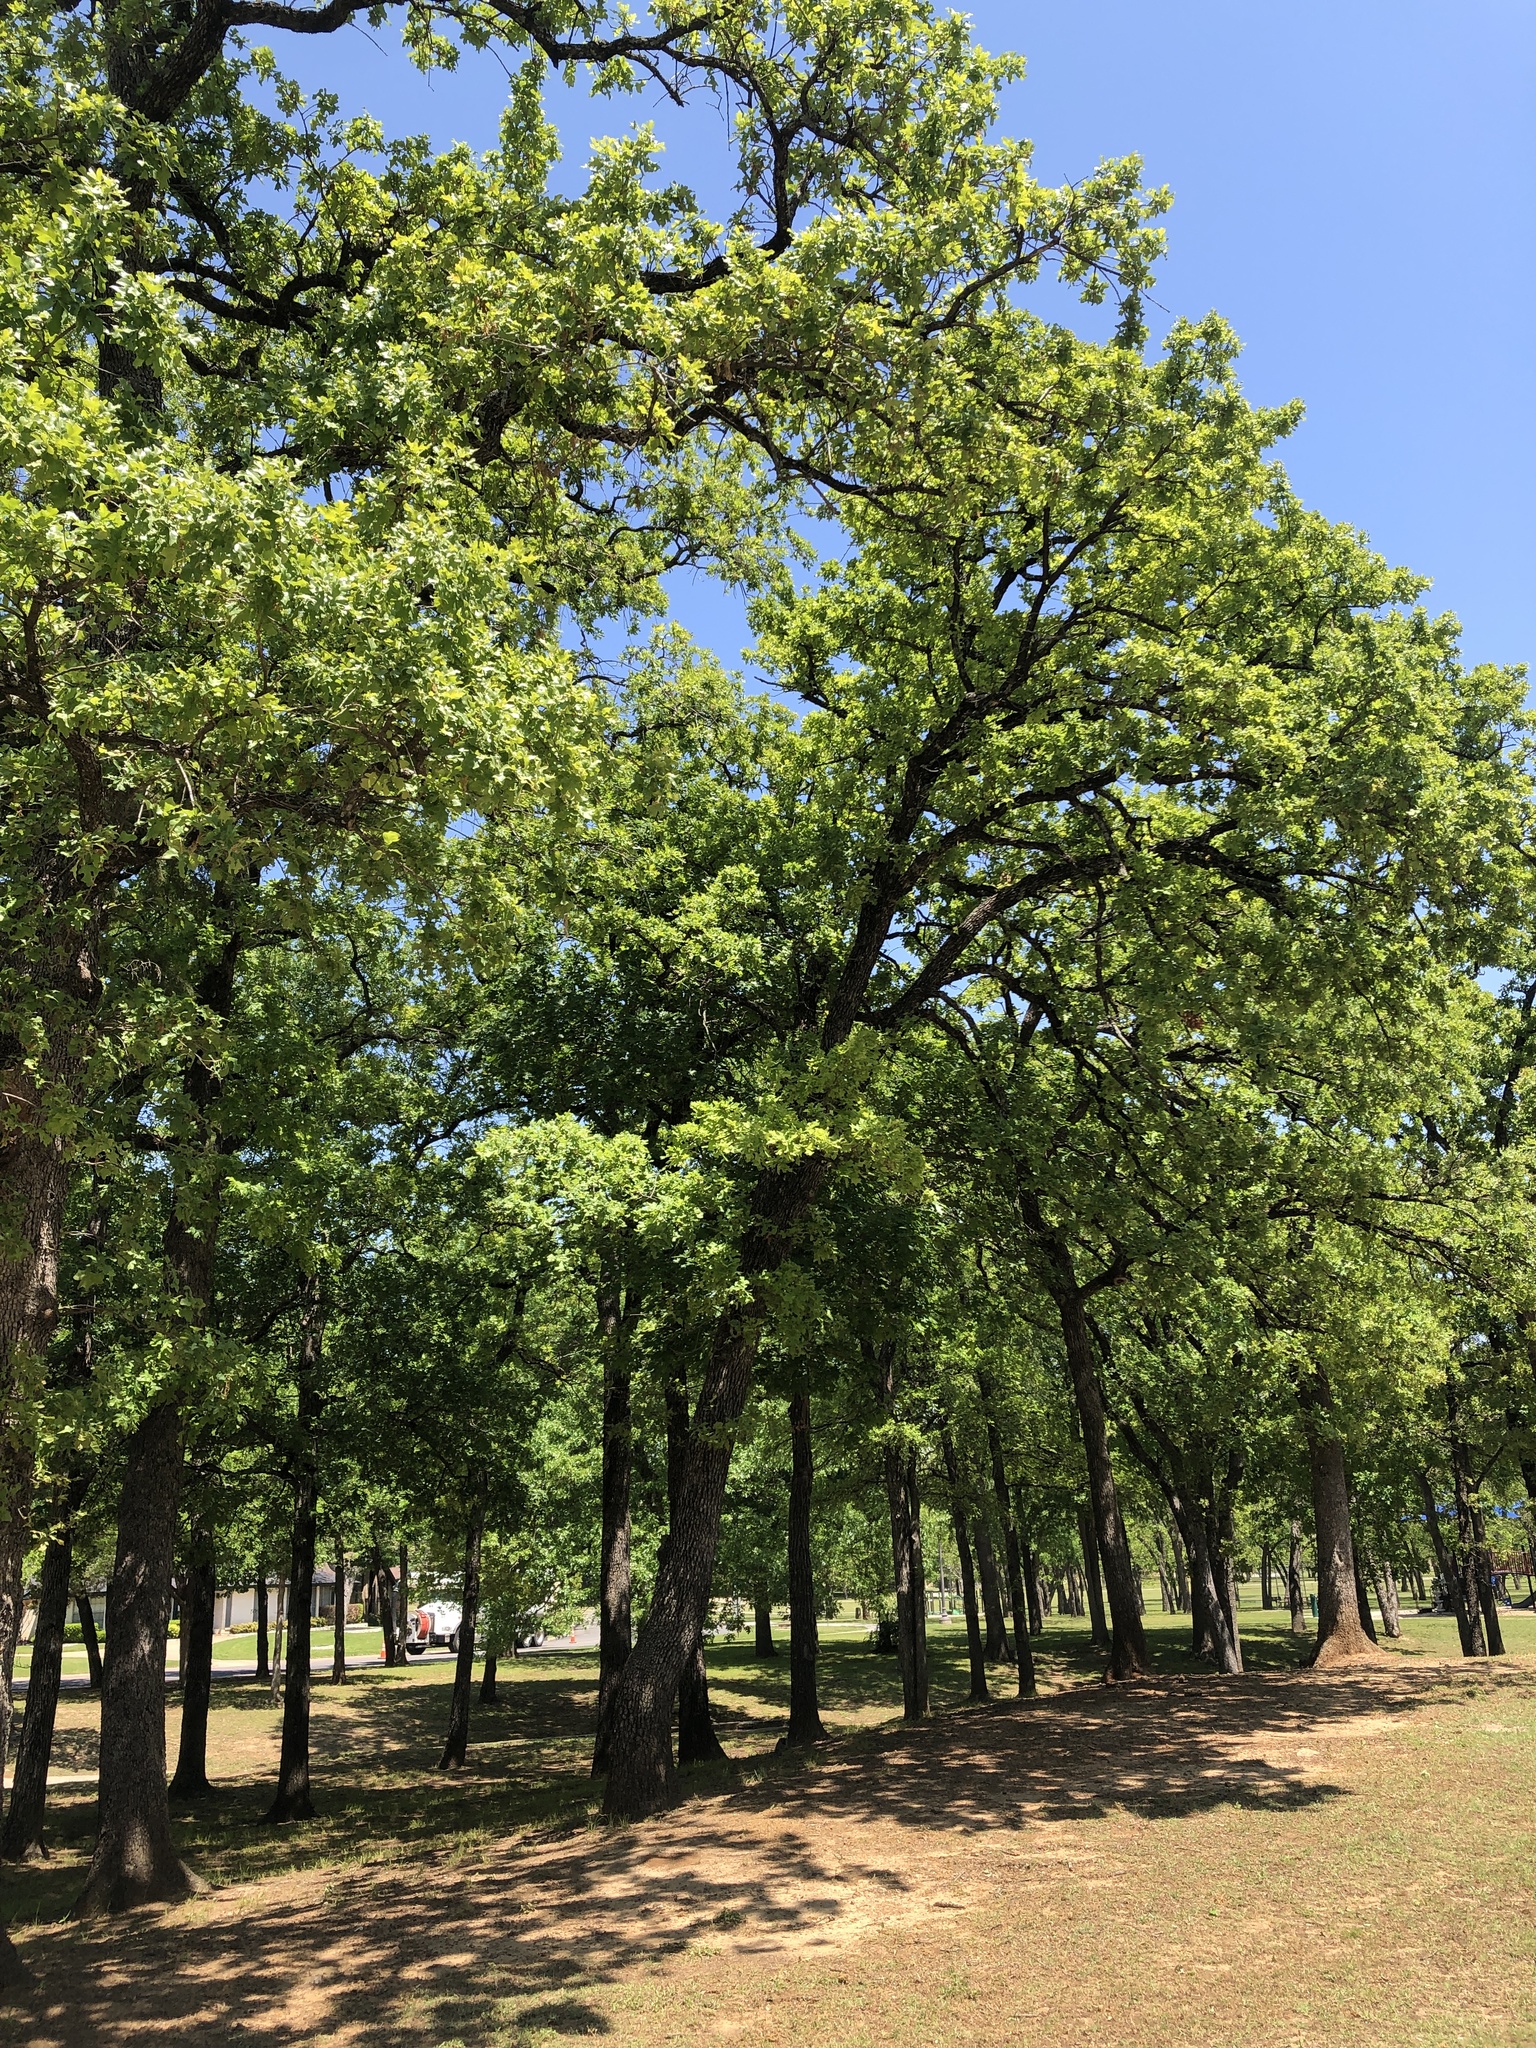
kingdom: Plantae
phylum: Tracheophyta
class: Magnoliopsida
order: Fagales
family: Fagaceae
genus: Quercus
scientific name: Quercus stellata
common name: Post oak
